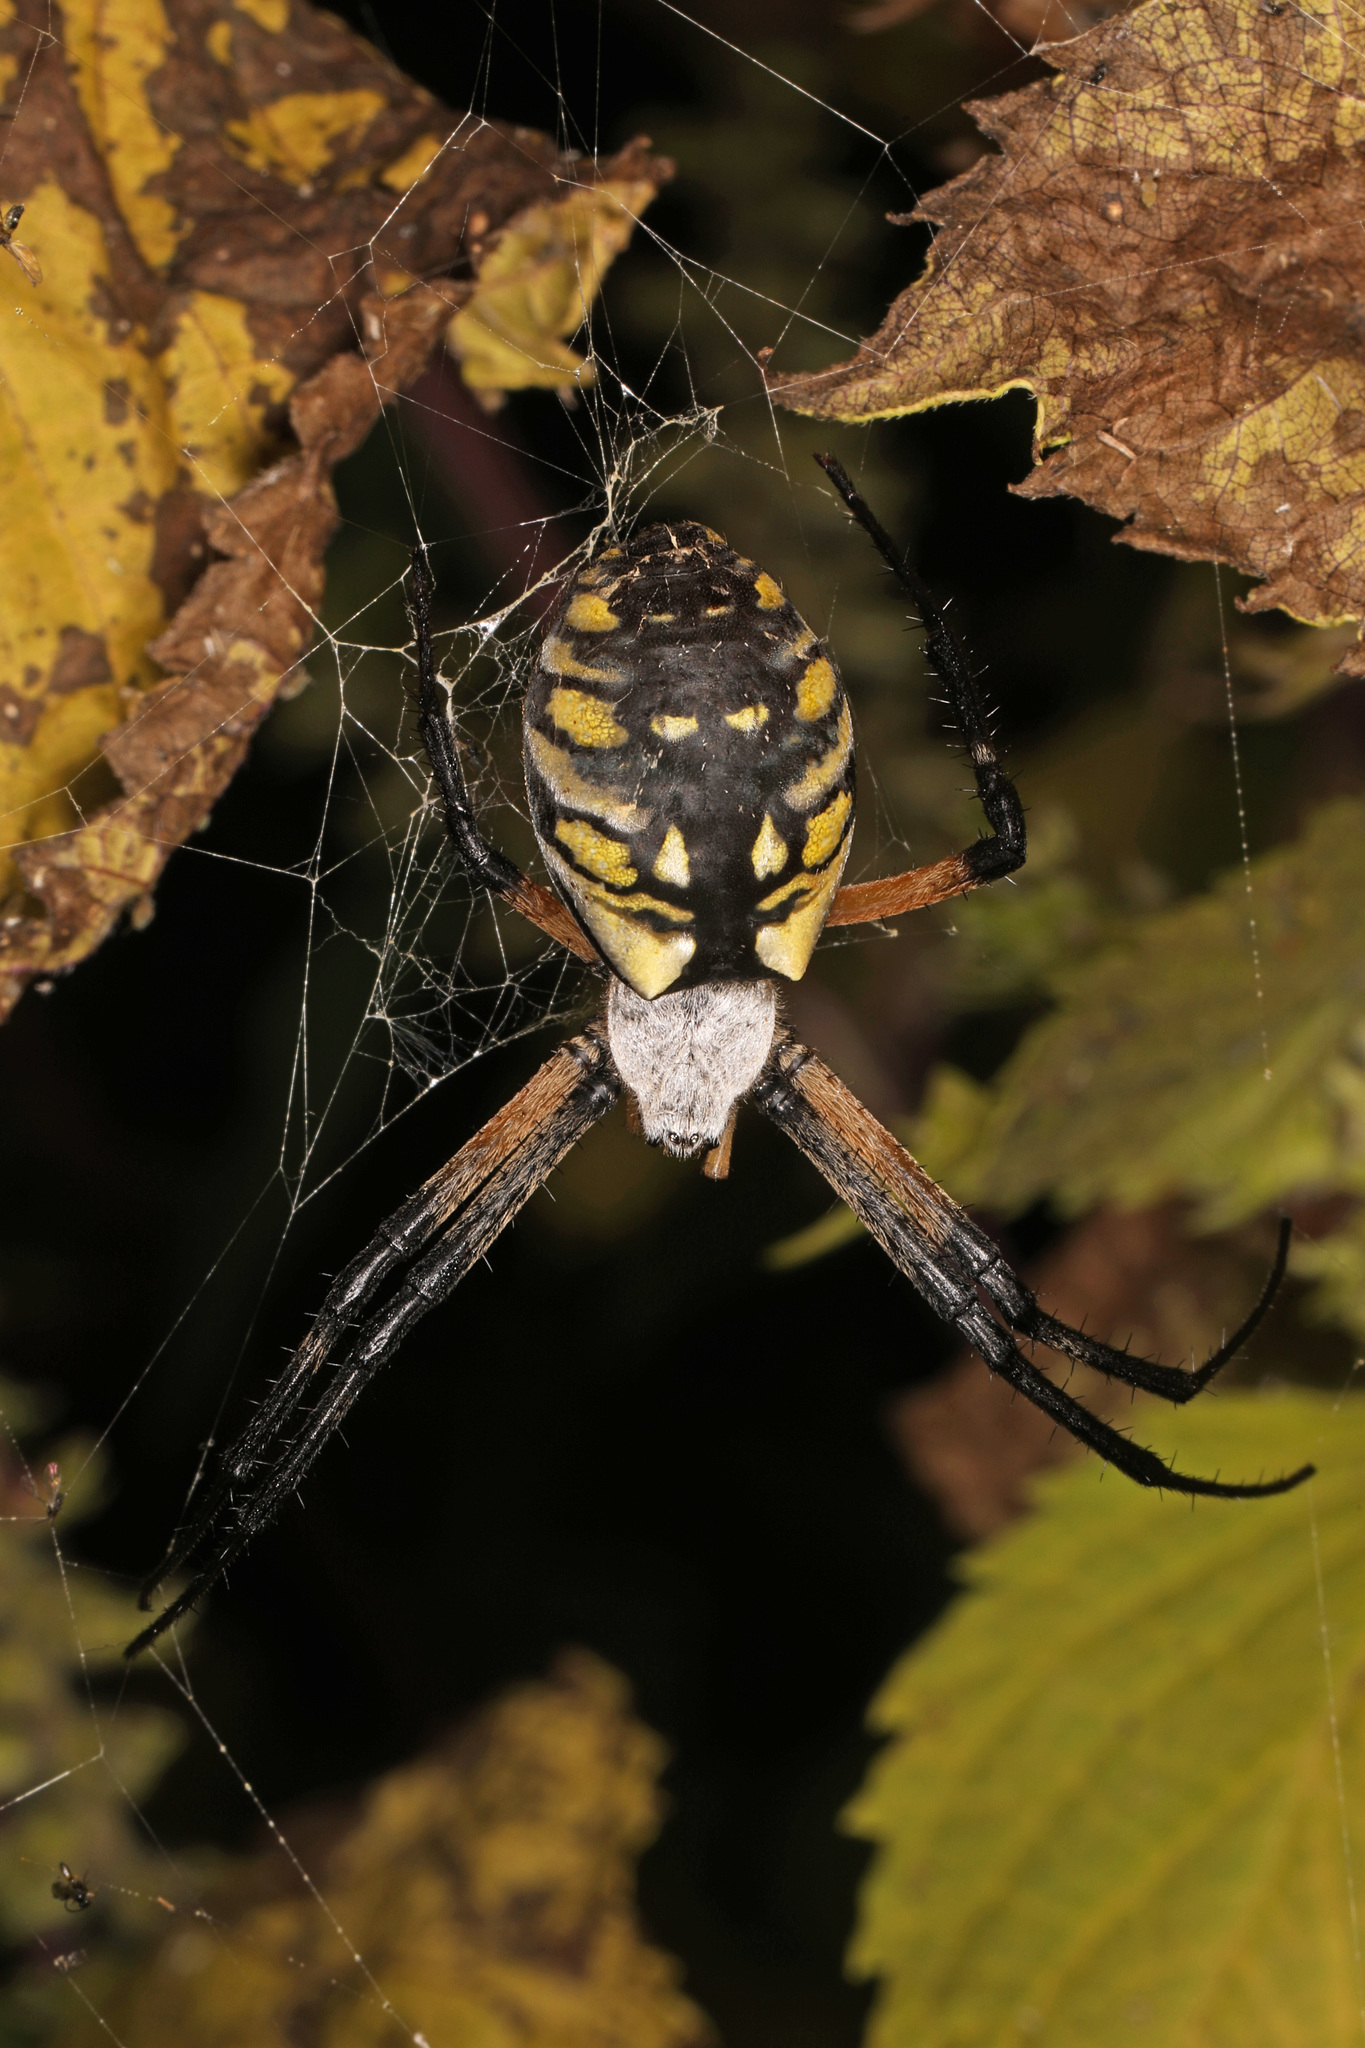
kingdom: Animalia
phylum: Arthropoda
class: Arachnida
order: Araneae
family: Araneidae
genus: Argiope
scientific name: Argiope aurantia
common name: Orb weavers
